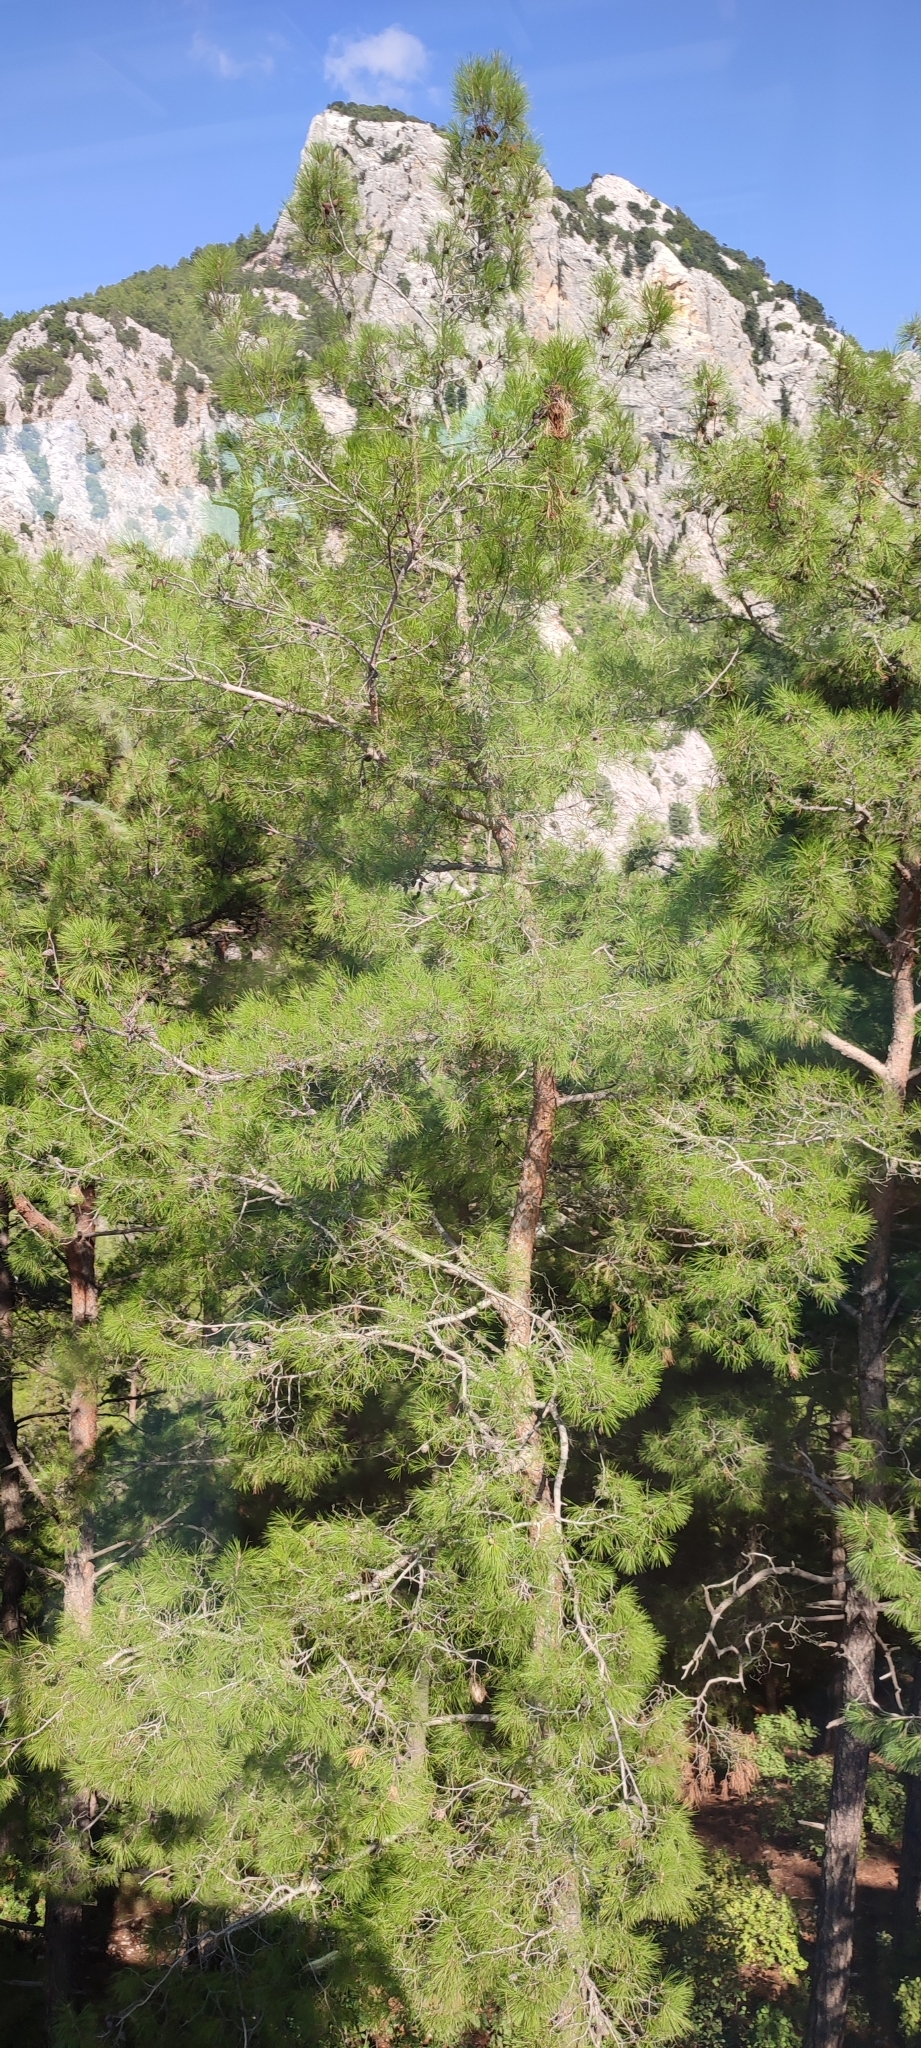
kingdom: Plantae
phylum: Tracheophyta
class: Pinopsida
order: Pinales
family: Pinaceae
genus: Pinus
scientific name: Pinus brutia
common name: Turkish pine
